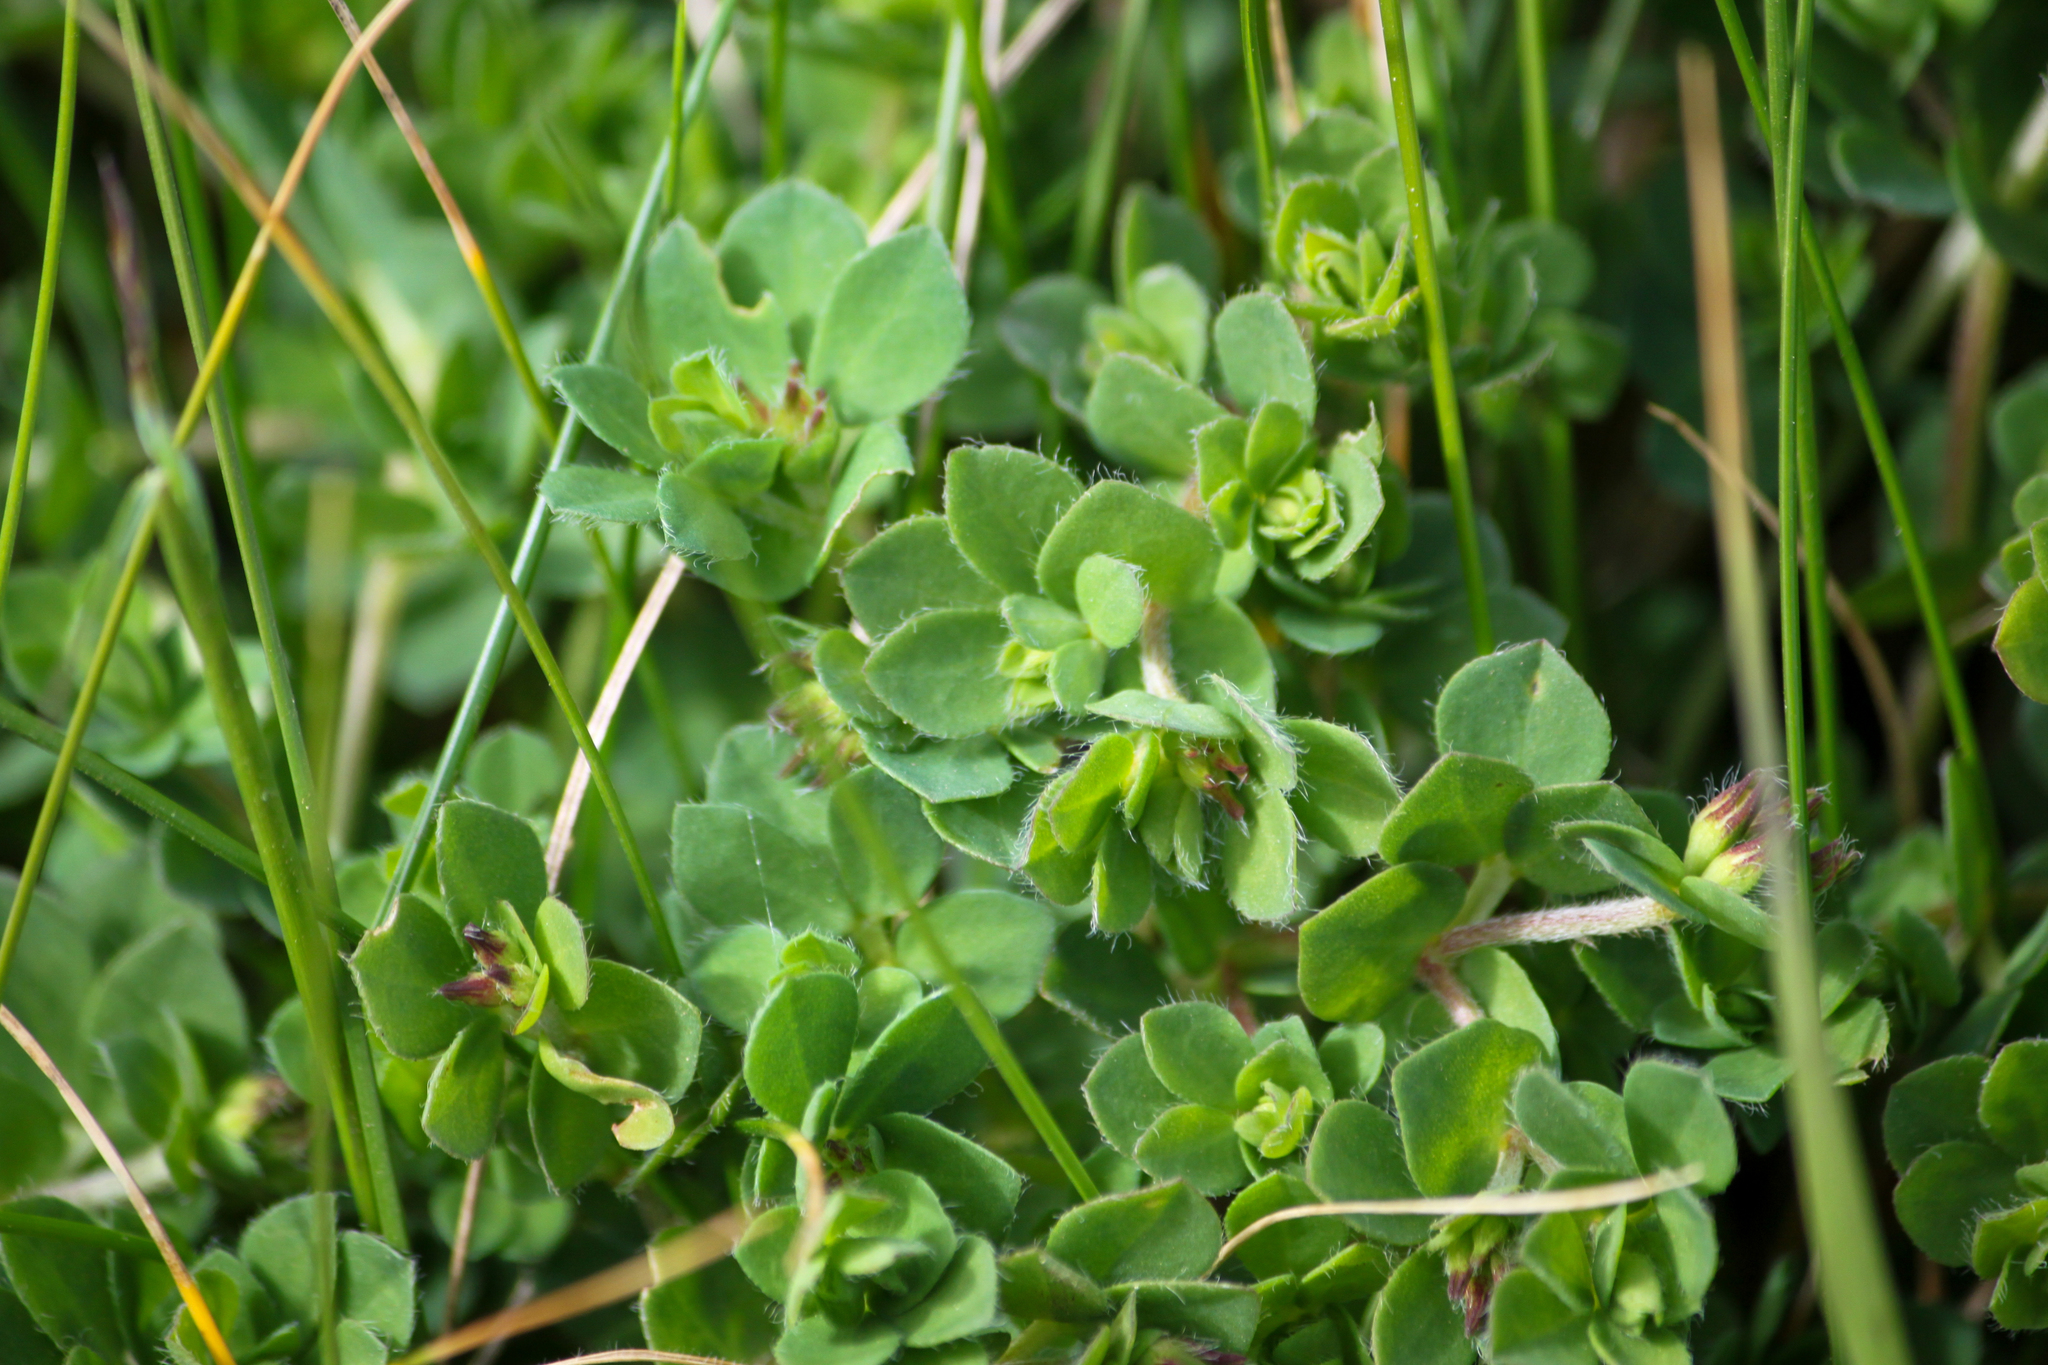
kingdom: Plantae
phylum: Tracheophyta
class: Magnoliopsida
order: Fabales
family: Fabaceae
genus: Lotus
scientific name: Lotus corniculatus
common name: Common bird's-foot-trefoil
